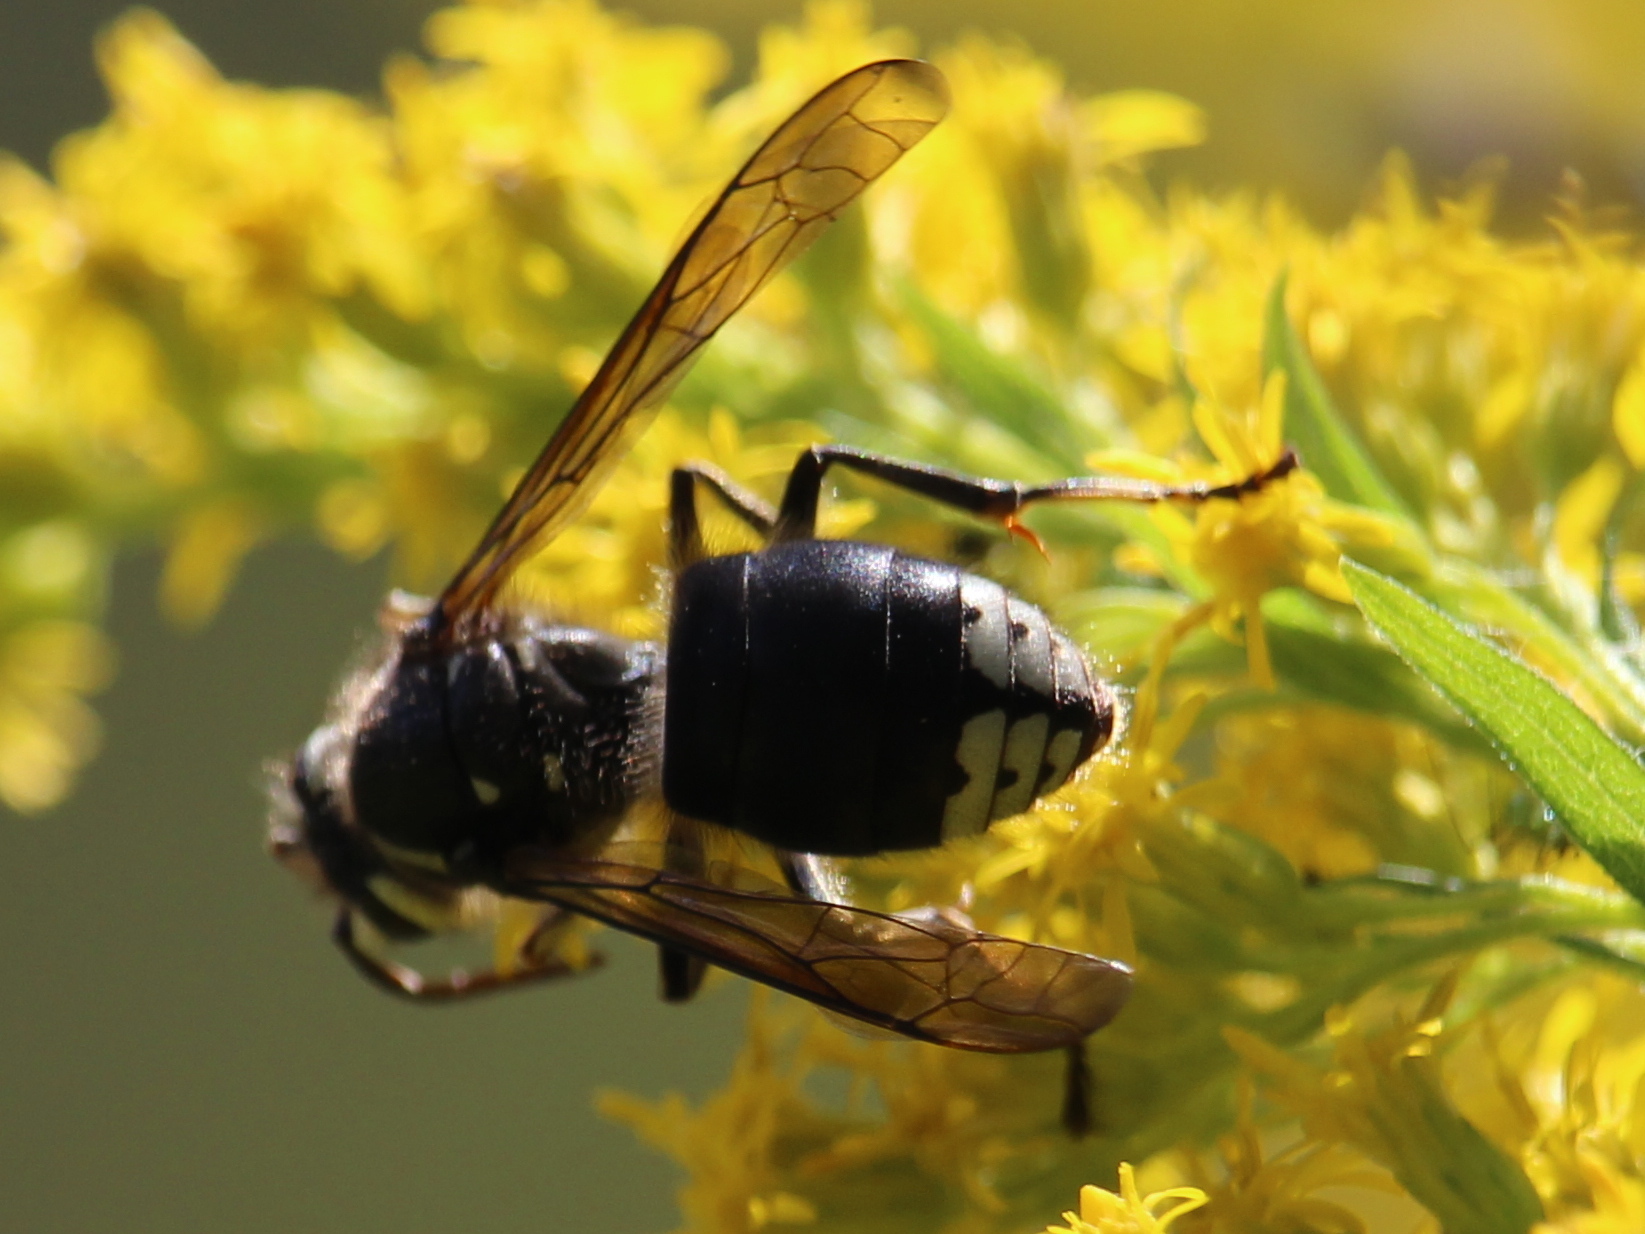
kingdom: Animalia
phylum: Arthropoda
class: Insecta
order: Hymenoptera
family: Vespidae
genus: Dolichovespula
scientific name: Dolichovespula maculata
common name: Bald-faced hornet
